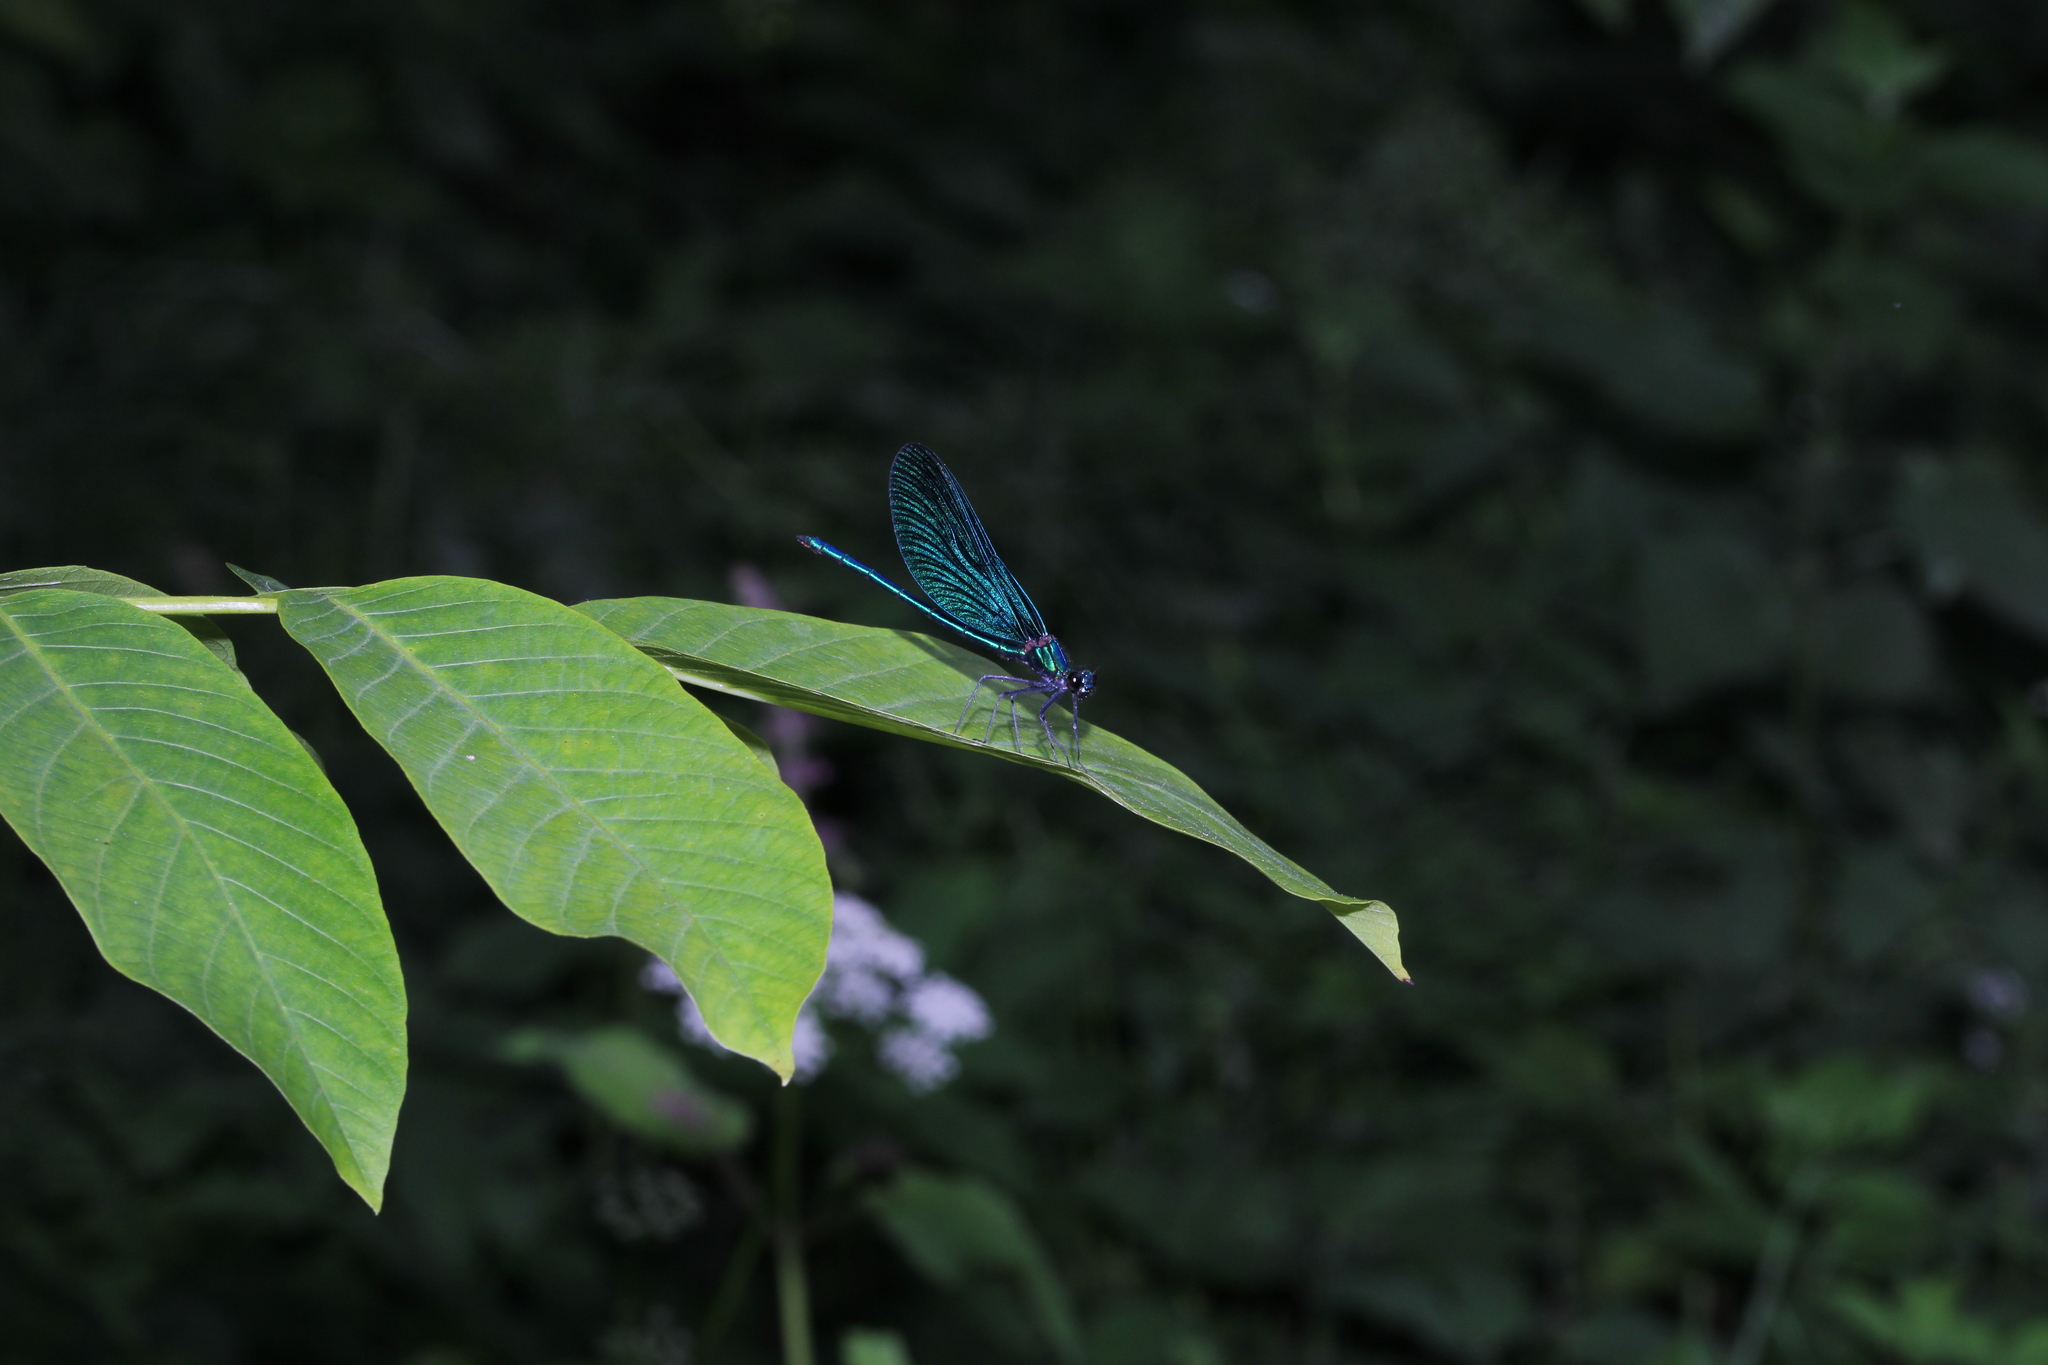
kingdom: Animalia
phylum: Arthropoda
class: Insecta
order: Odonata
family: Calopterygidae
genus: Calopteryx
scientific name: Calopteryx virgo
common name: Beautiful demoiselle
